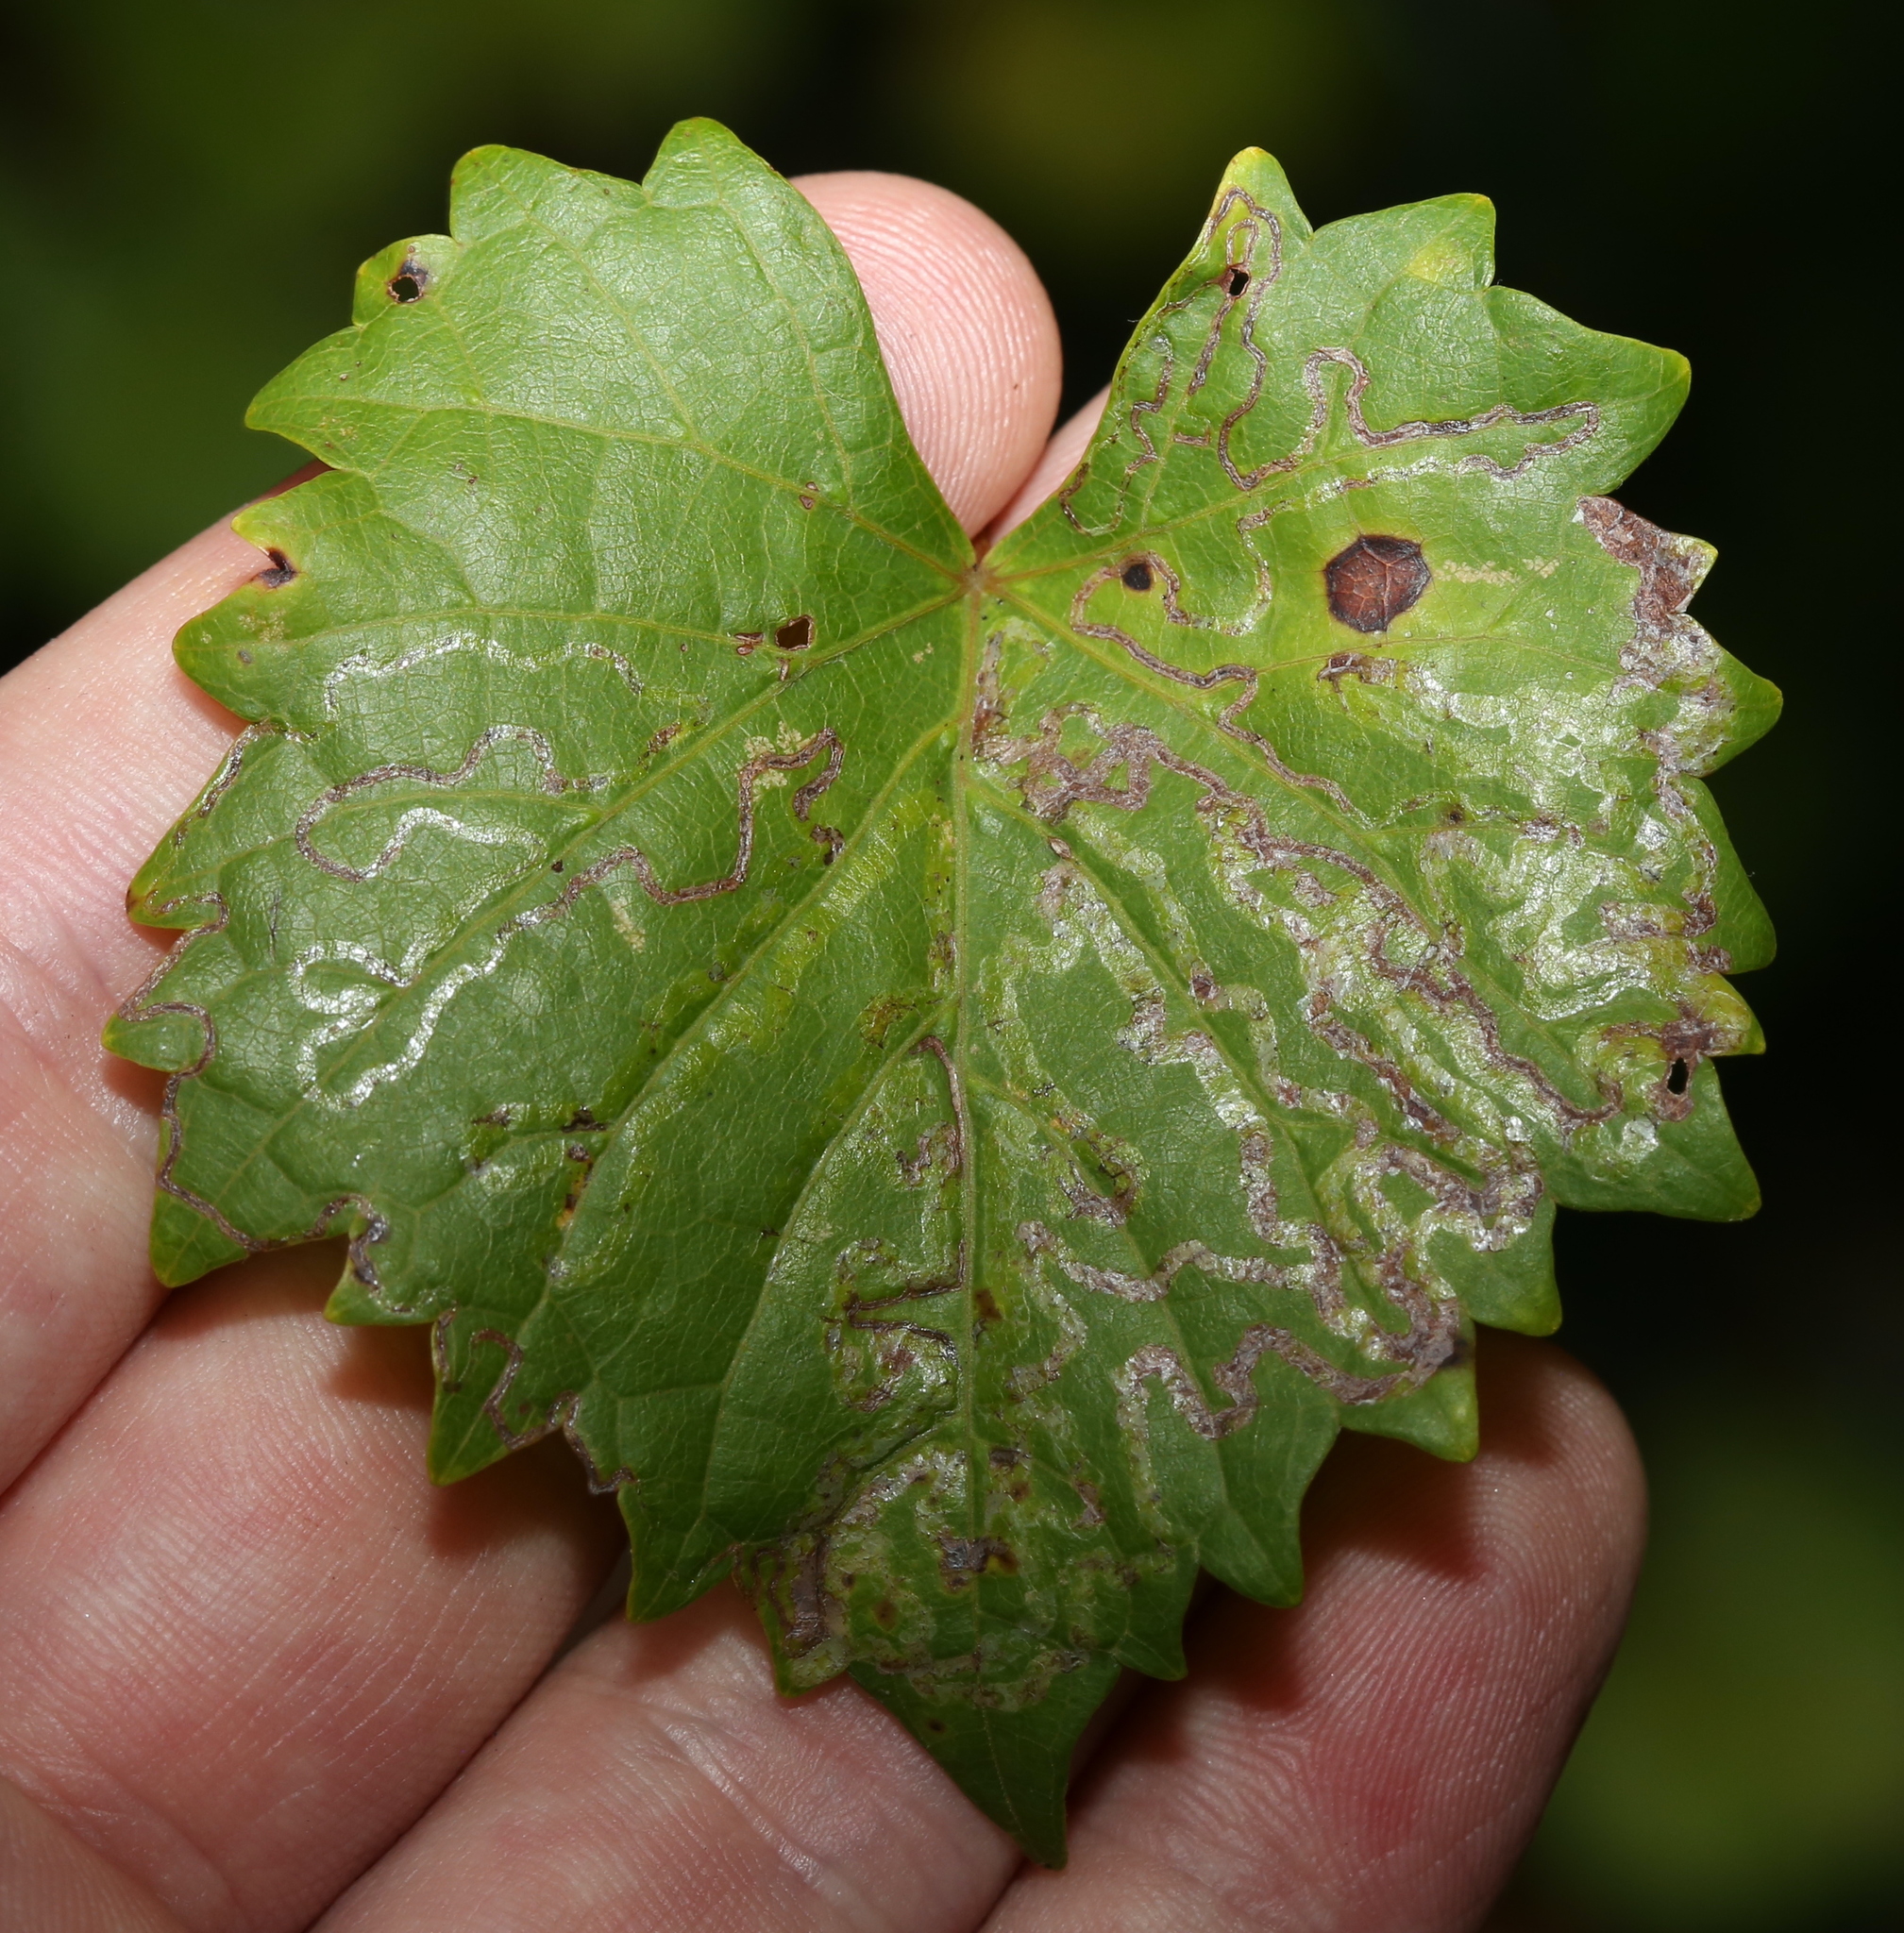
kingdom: Animalia
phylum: Arthropoda
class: Insecta
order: Lepidoptera
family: Gracillariidae
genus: Phyllocnistis
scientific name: Phyllocnistis vitegenella
